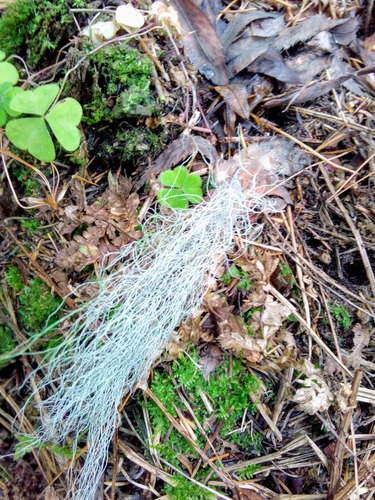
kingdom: Fungi
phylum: Ascomycota
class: Lecanoromycetes
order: Lecanorales
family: Parmeliaceae
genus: Bryoria
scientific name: Bryoria
